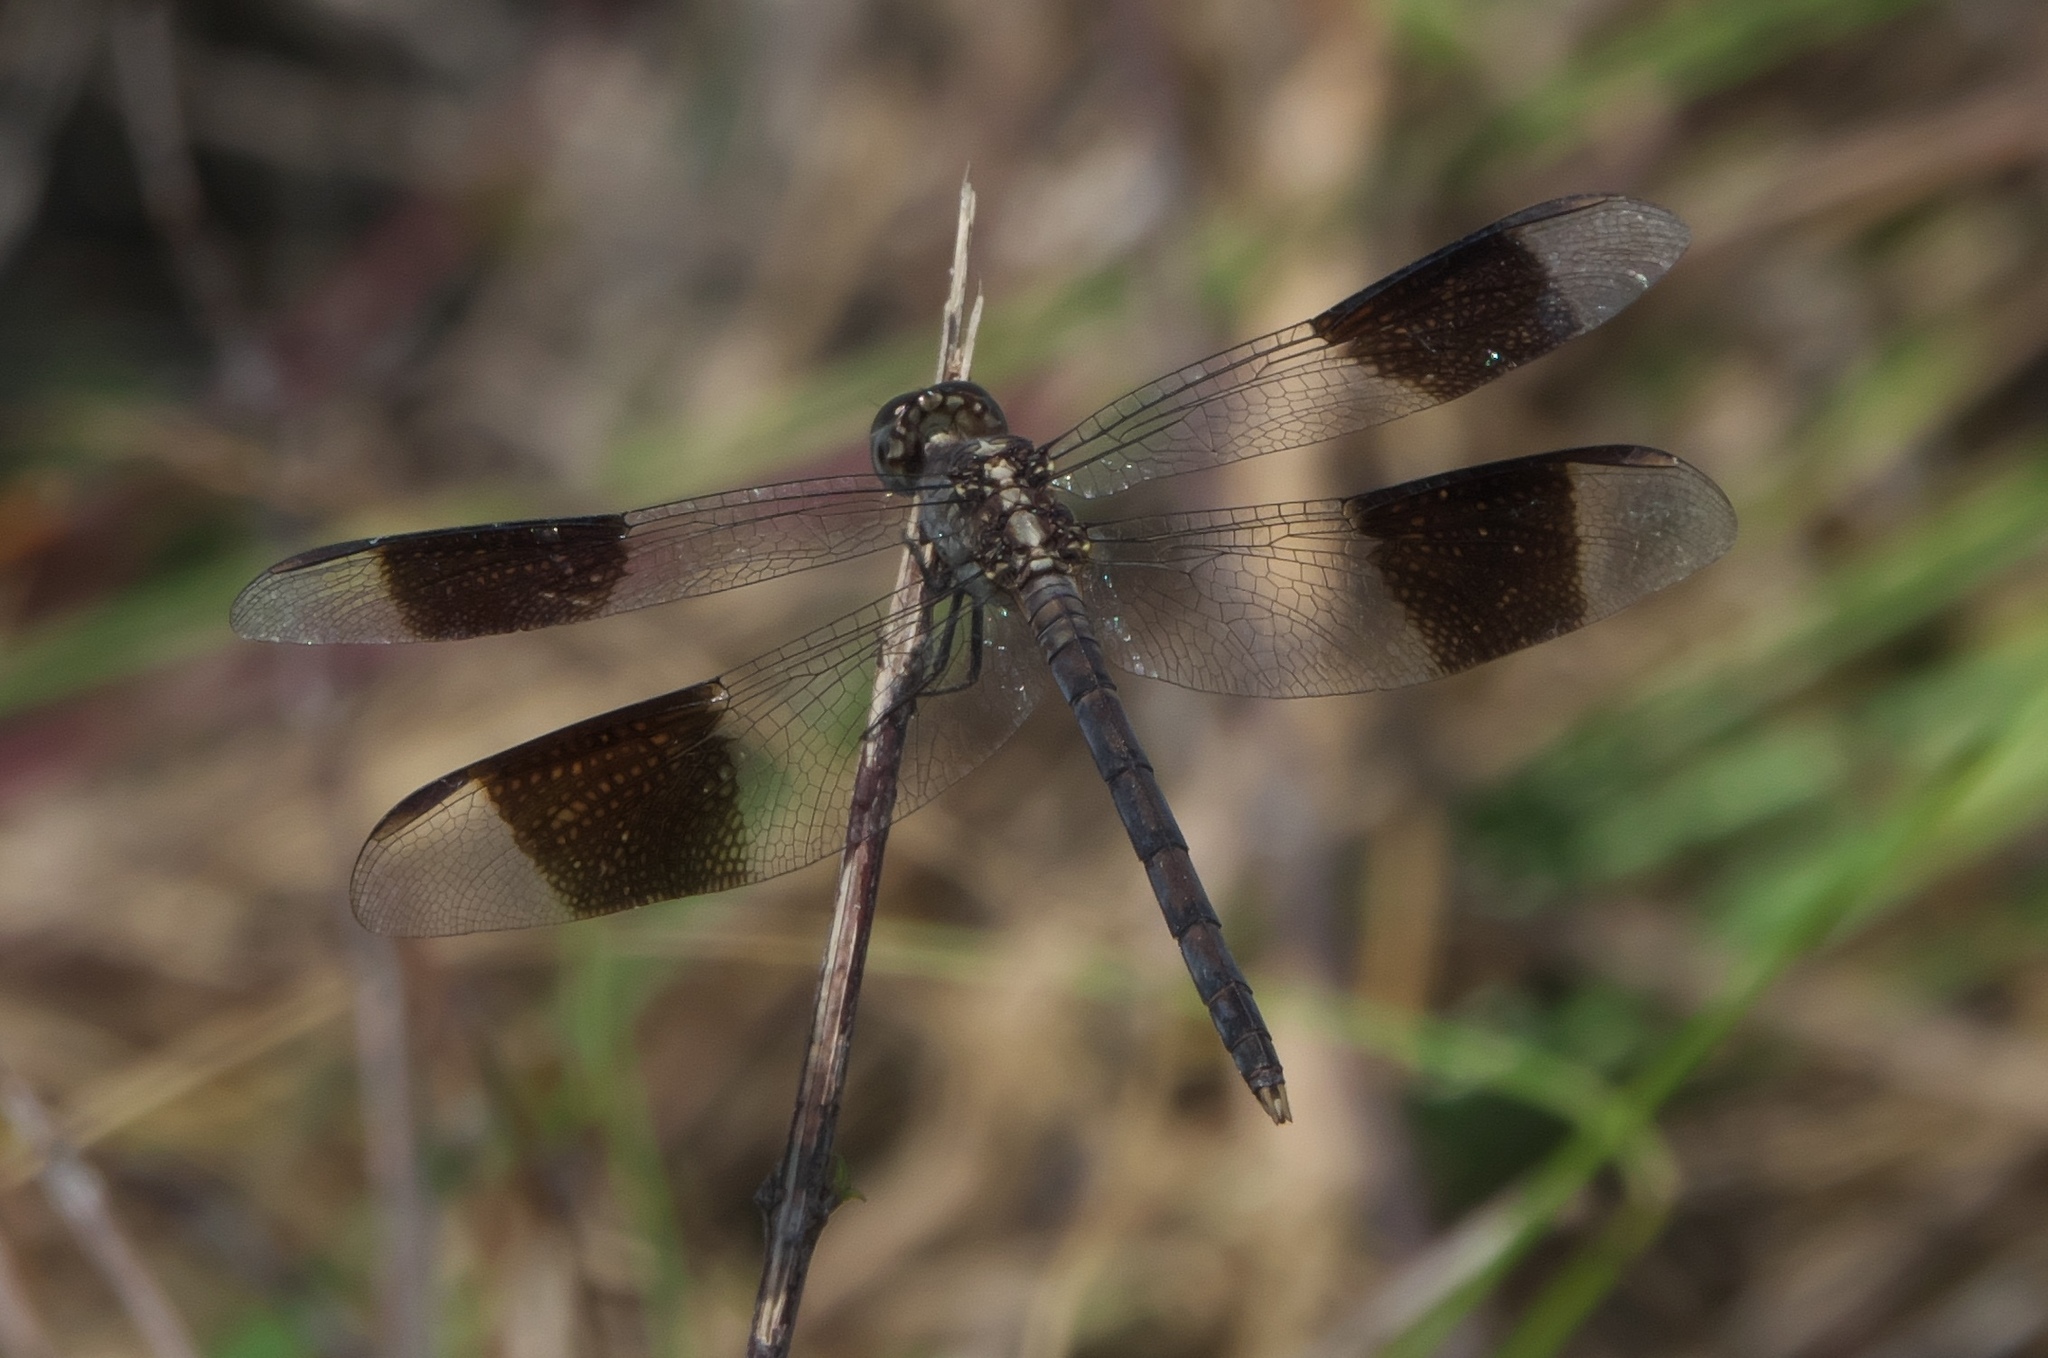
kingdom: Animalia
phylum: Arthropoda
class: Insecta
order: Odonata
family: Libellulidae
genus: Erythrodiplax
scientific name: Erythrodiplax umbrata
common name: Band-winged dragonlet
